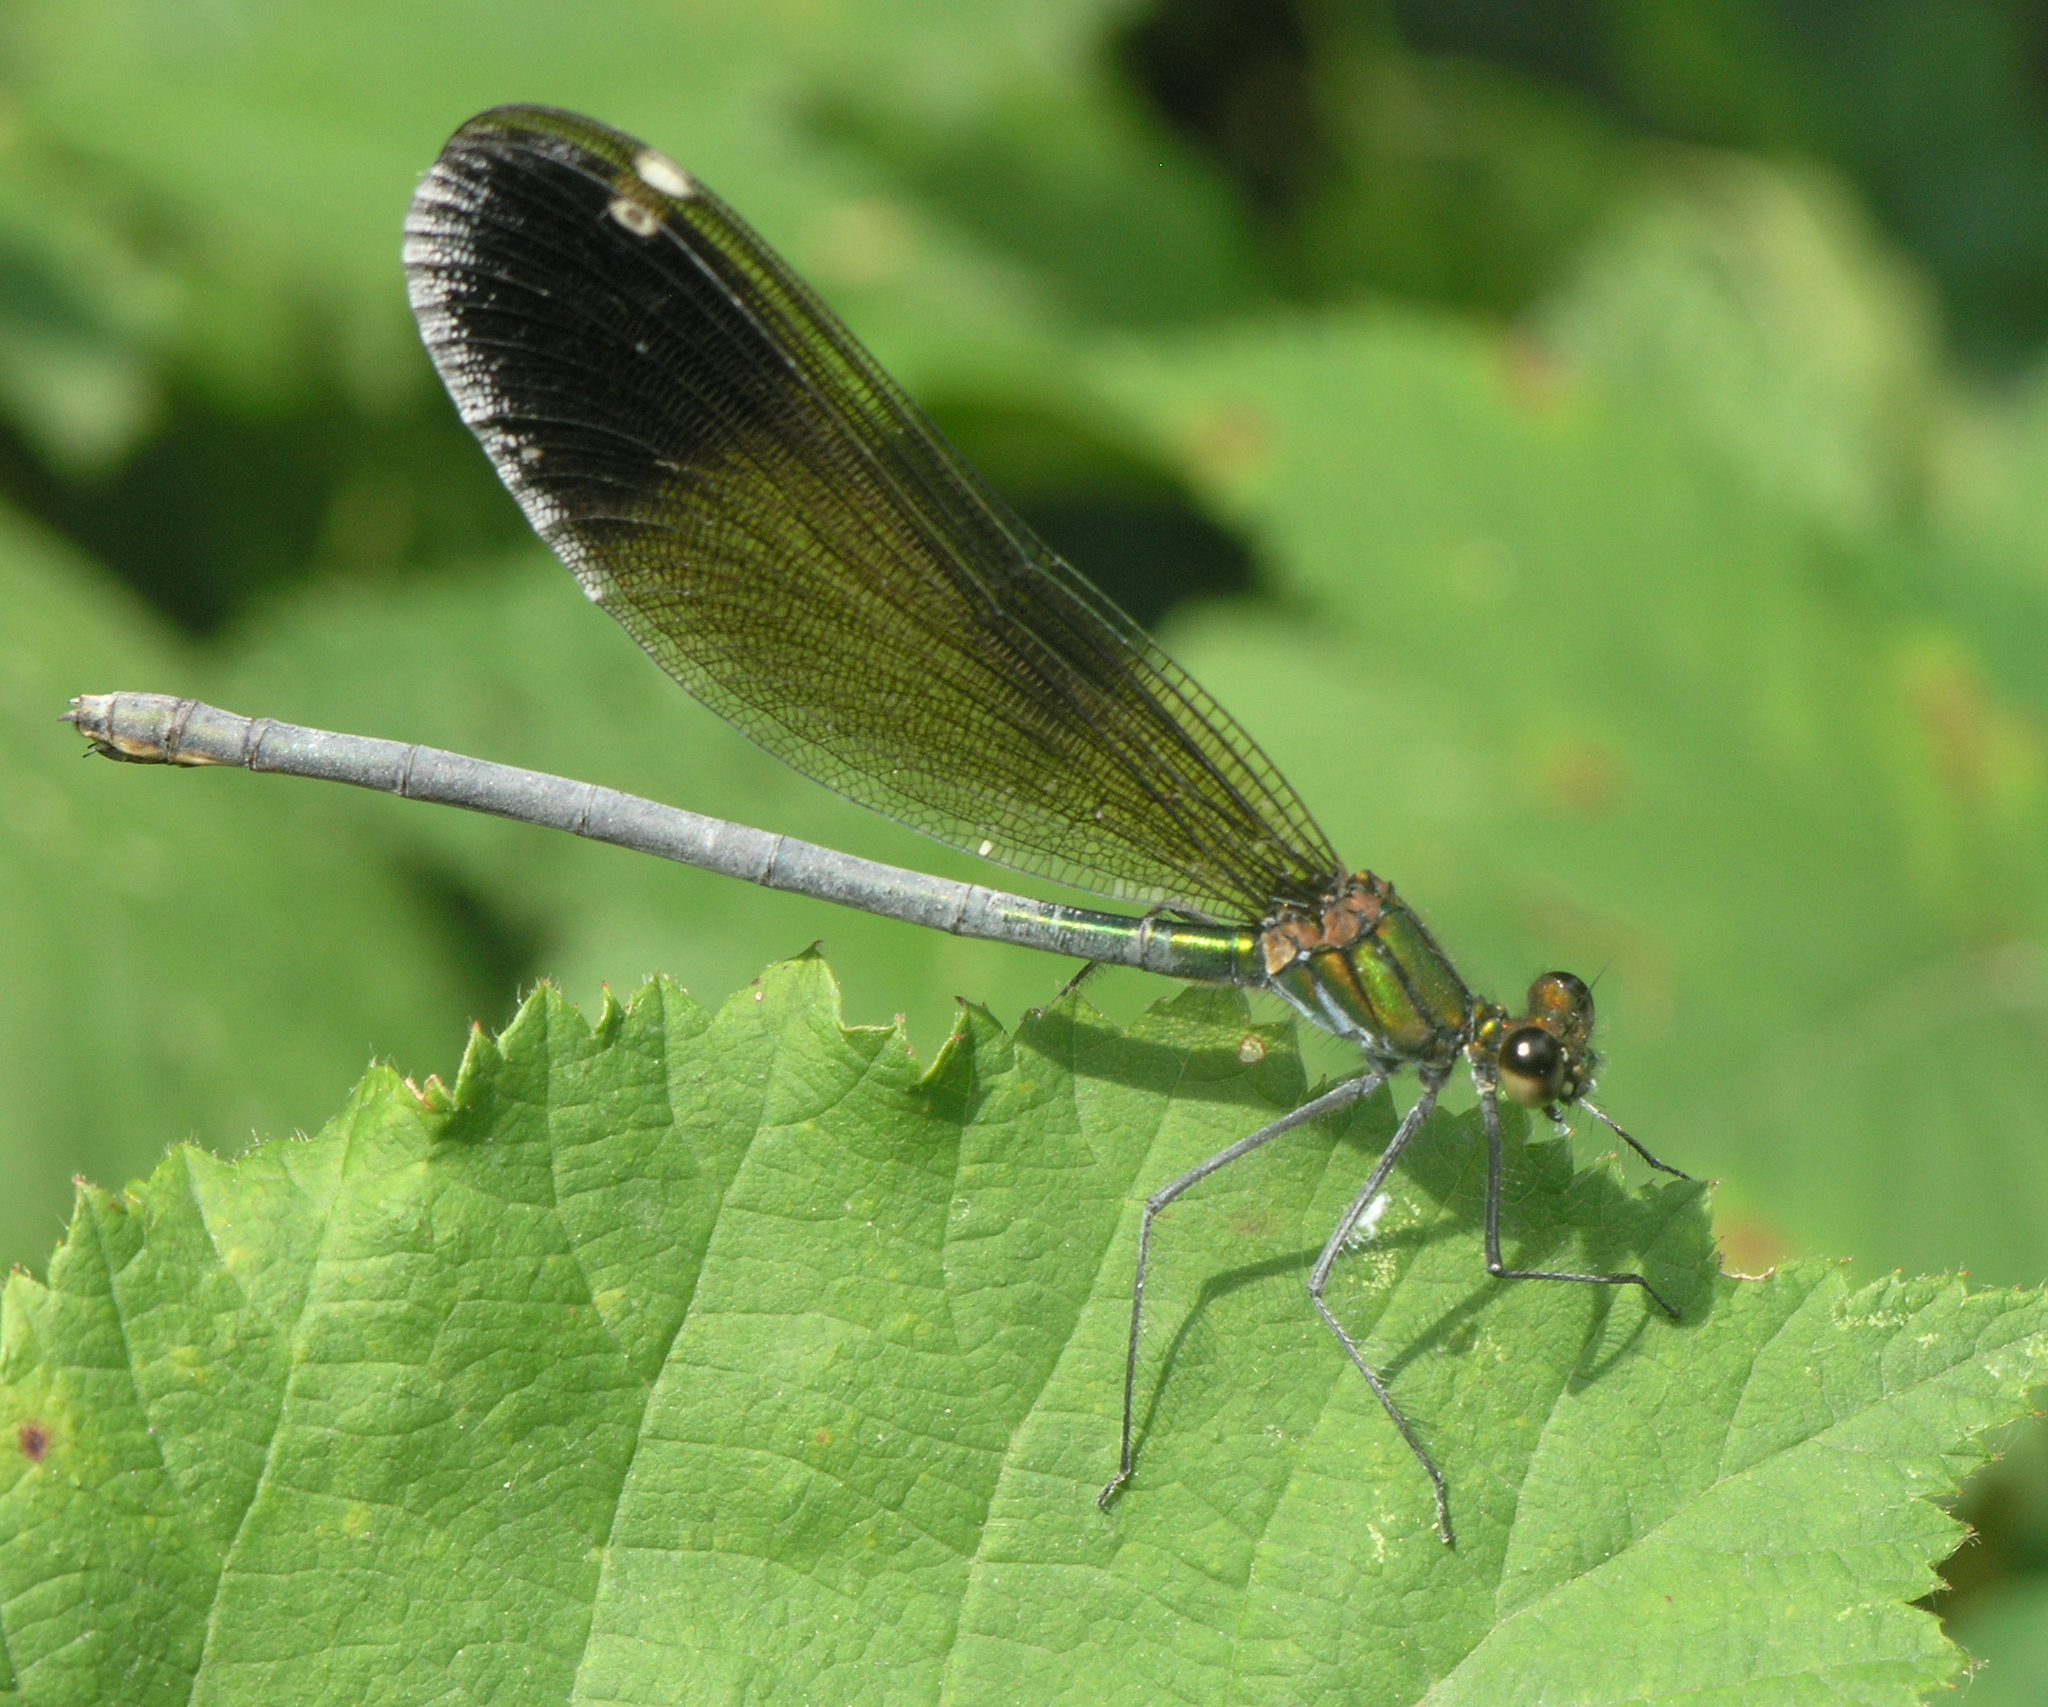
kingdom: Animalia
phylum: Arthropoda
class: Insecta
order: Odonata
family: Calopterygidae
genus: Calopteryx
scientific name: Calopteryx virgo
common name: Beautiful demoiselle
